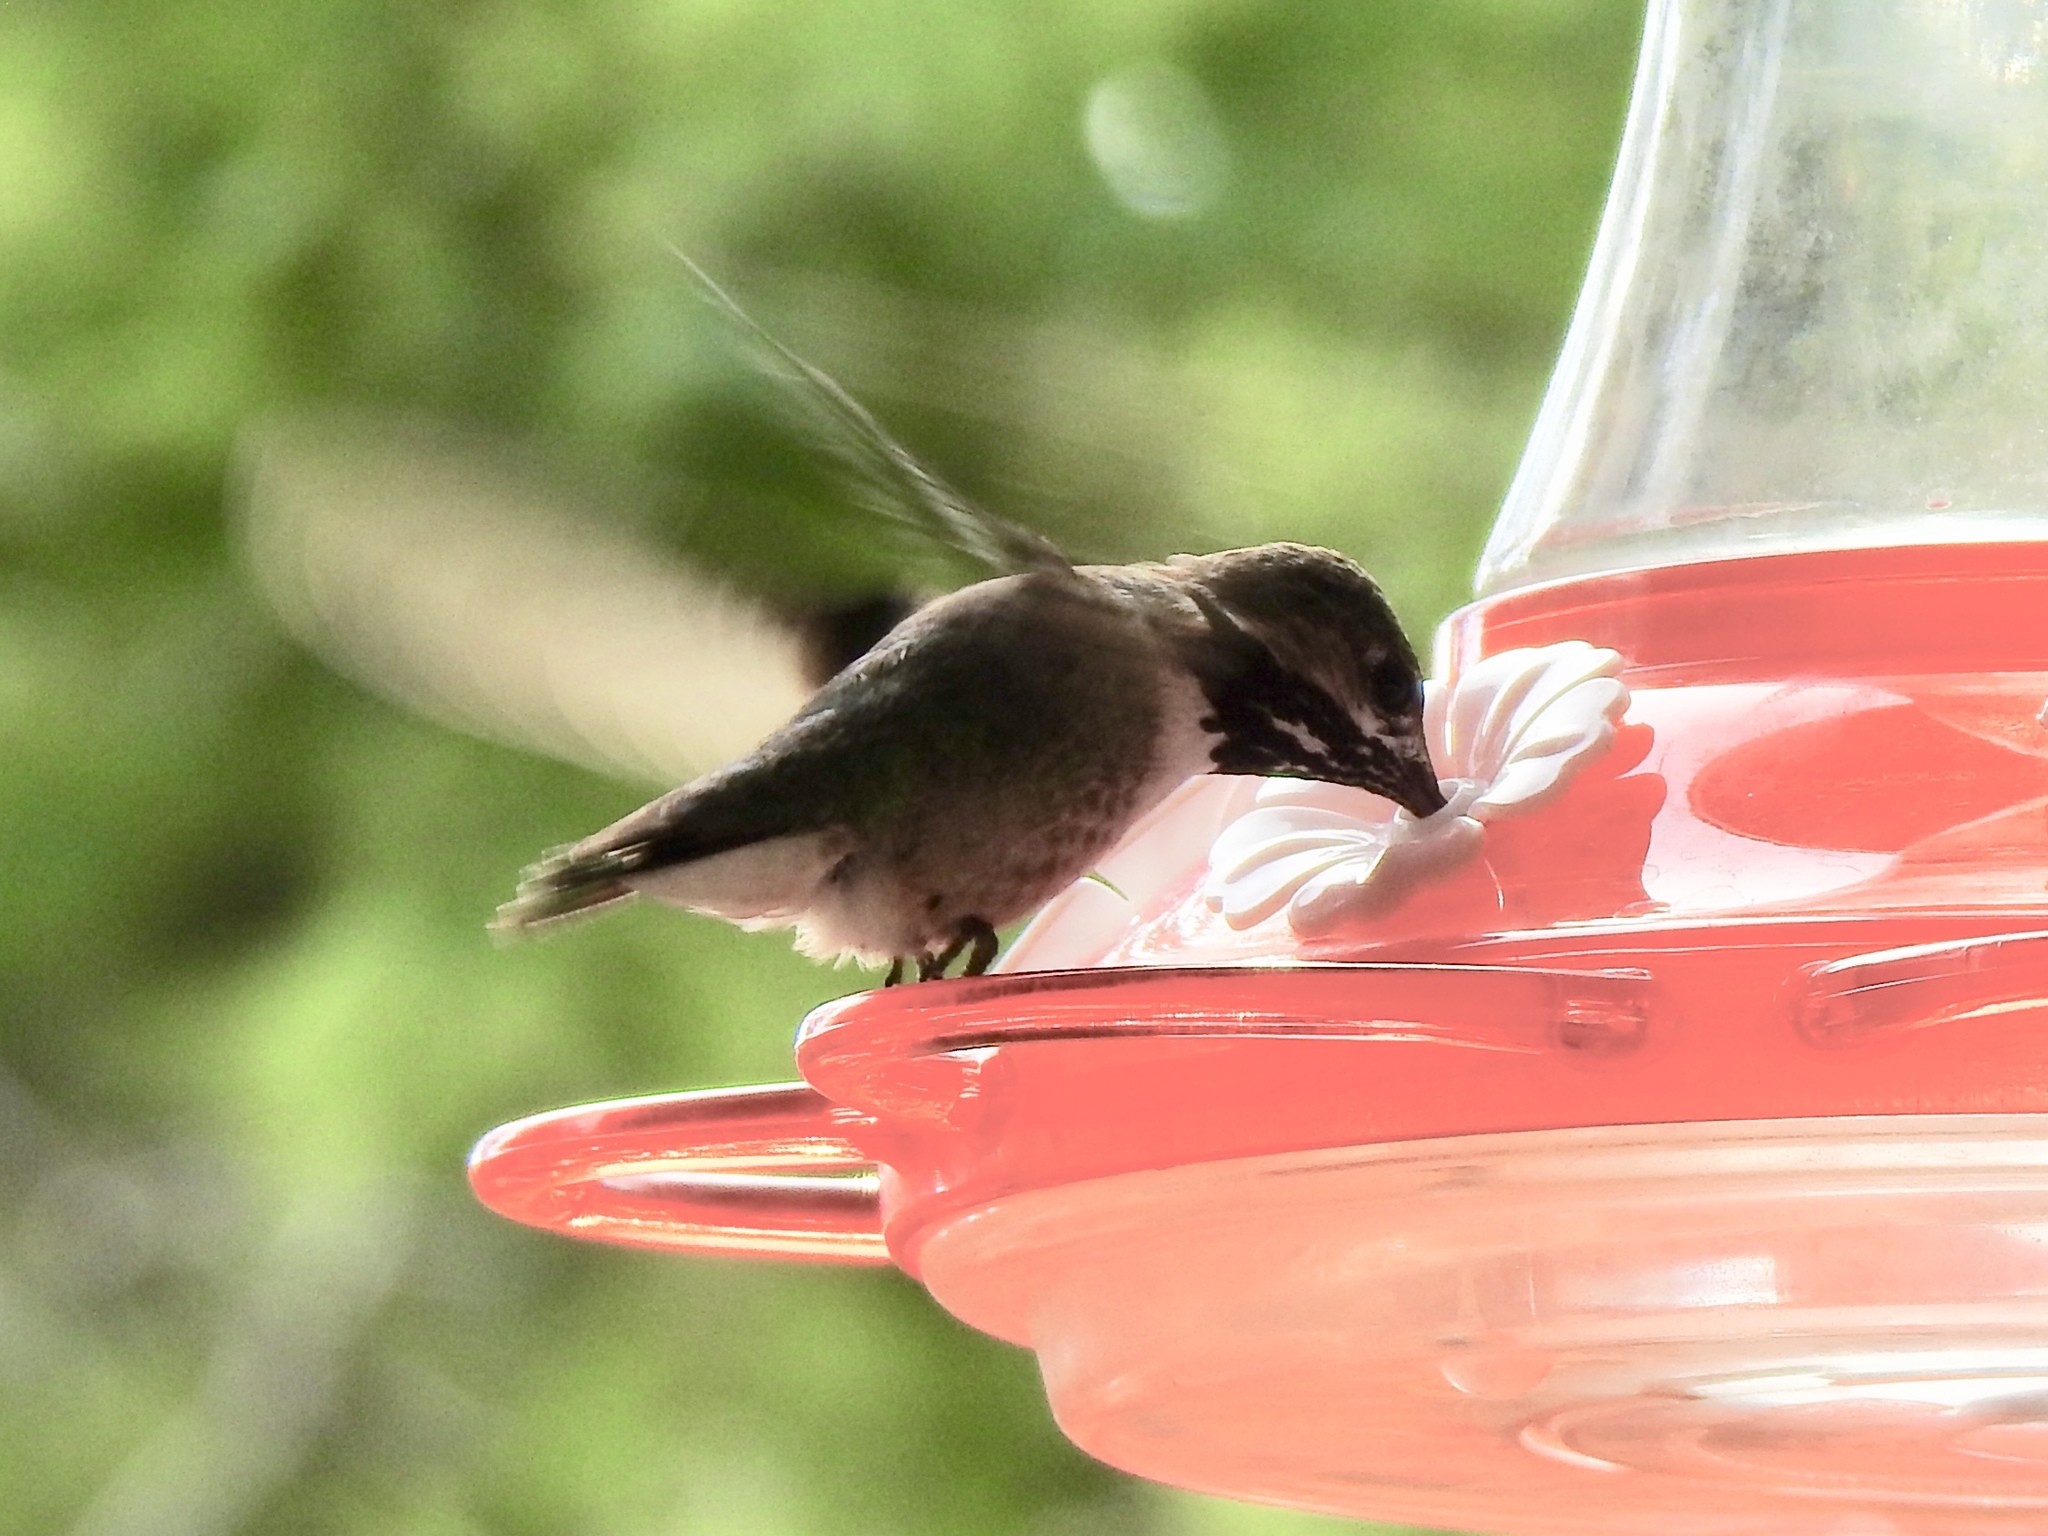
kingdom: Animalia
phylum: Chordata
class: Aves
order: Apodiformes
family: Trochilidae
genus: Selasphorus
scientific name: Selasphorus calliope
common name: Calliope hummingbird
